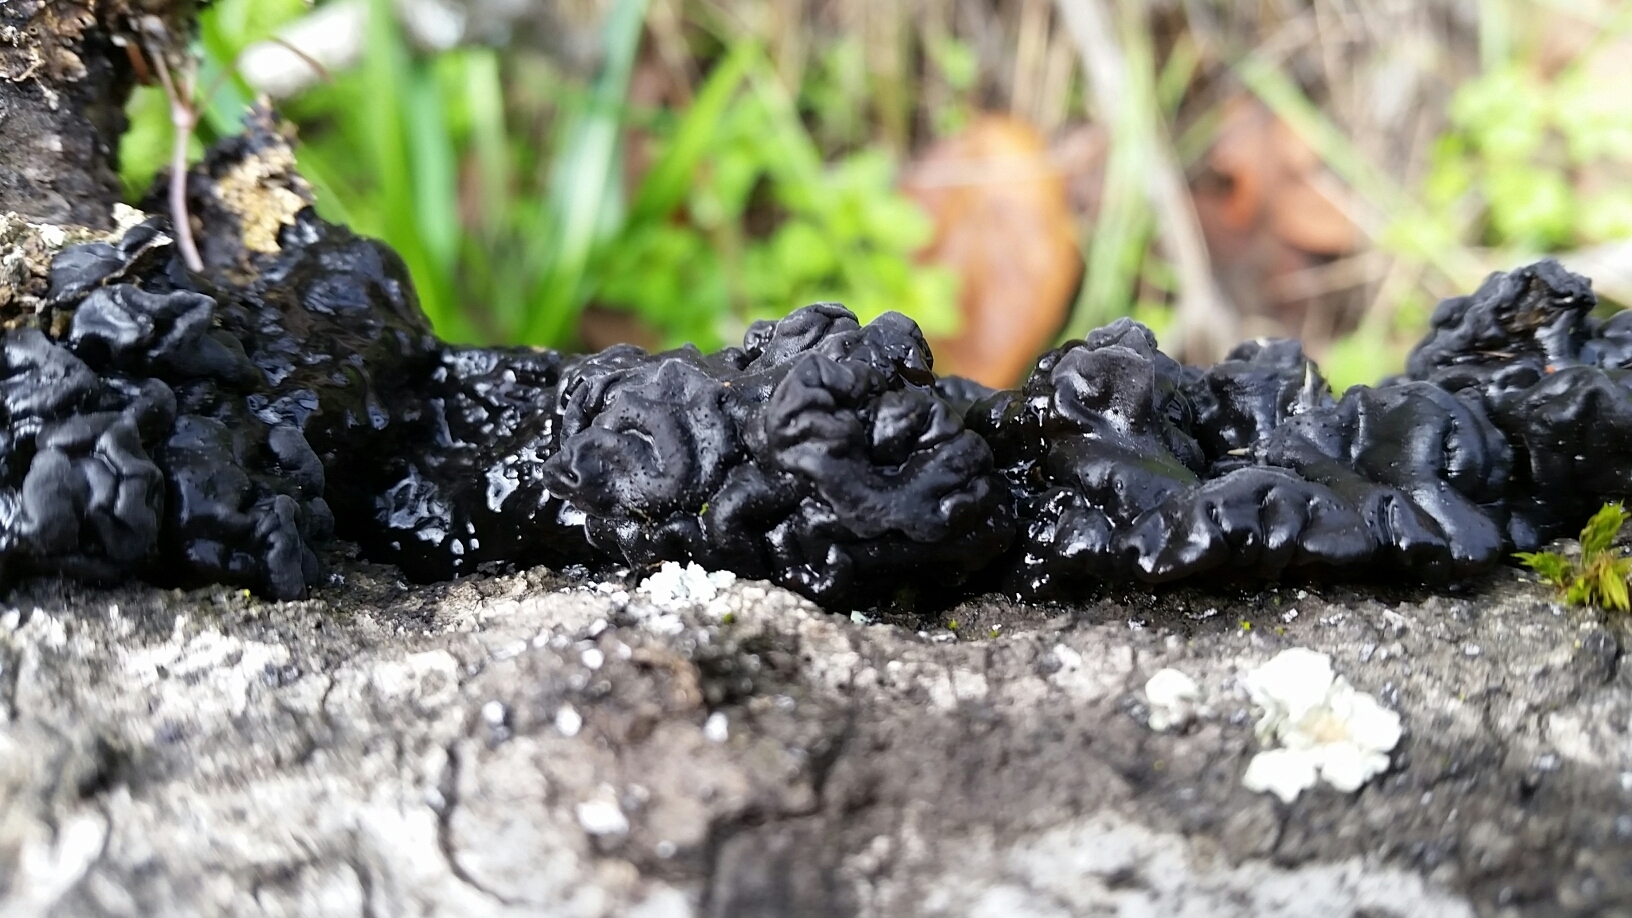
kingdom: Fungi
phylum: Basidiomycota
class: Agaricomycetes
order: Auriculariales
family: Auriculariaceae
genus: Exidia
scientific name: Exidia glandulosa
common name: Witches' butter
